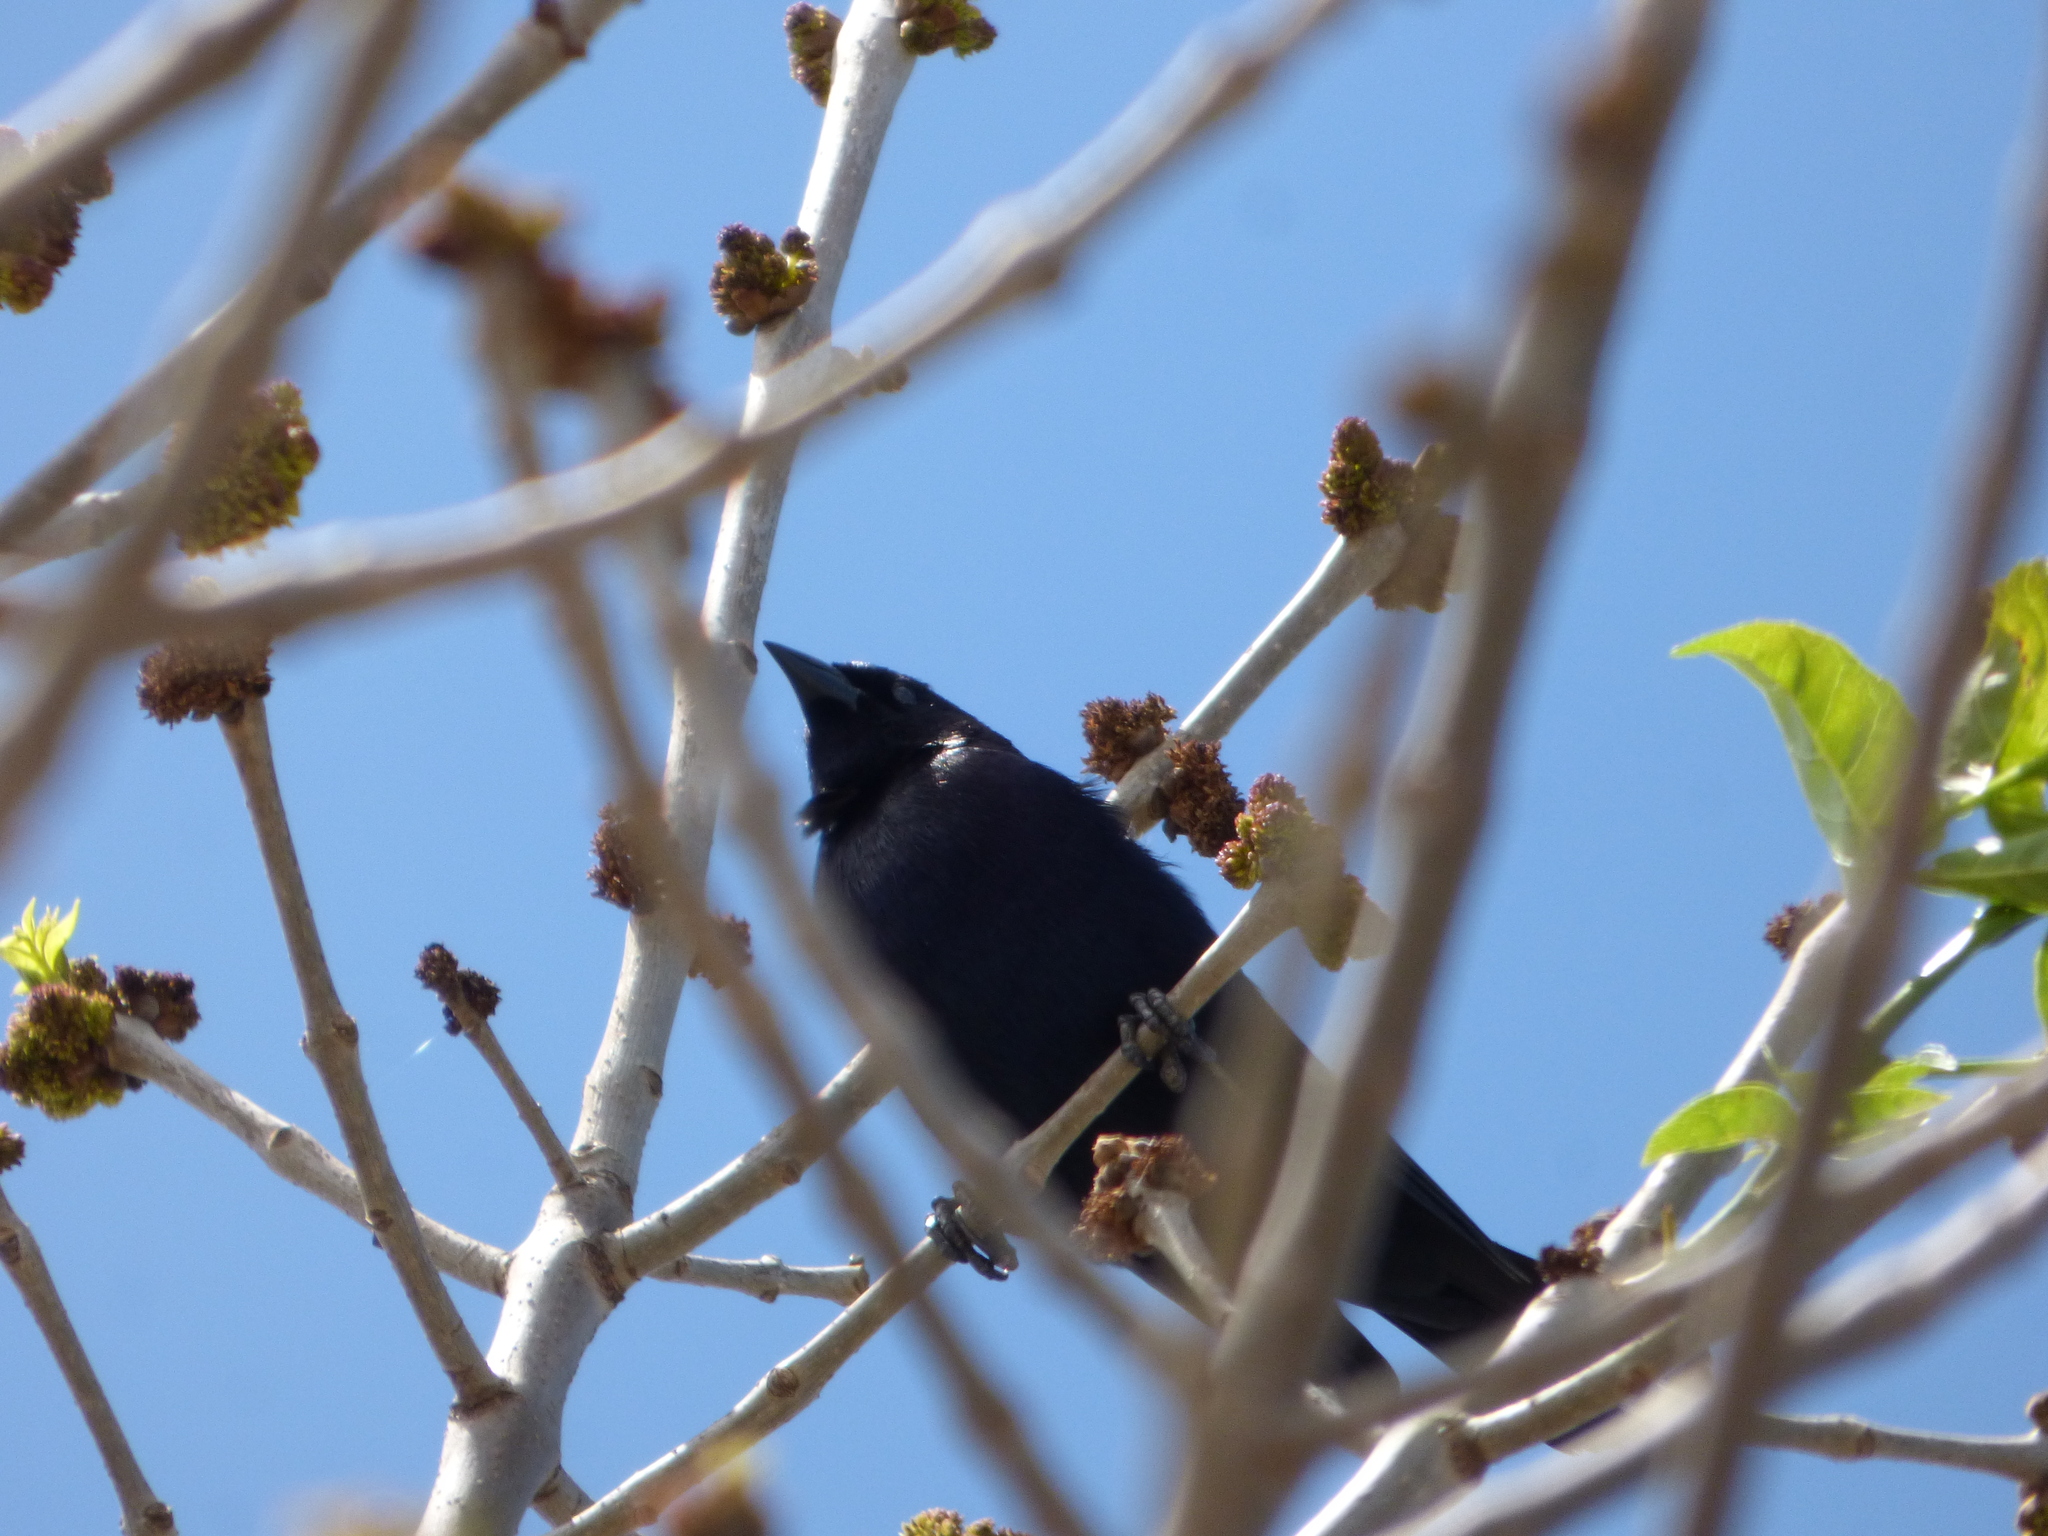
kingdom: Animalia
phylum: Chordata
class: Aves
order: Passeriformes
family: Icteridae
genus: Molothrus
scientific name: Molothrus bonariensis
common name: Shiny cowbird
